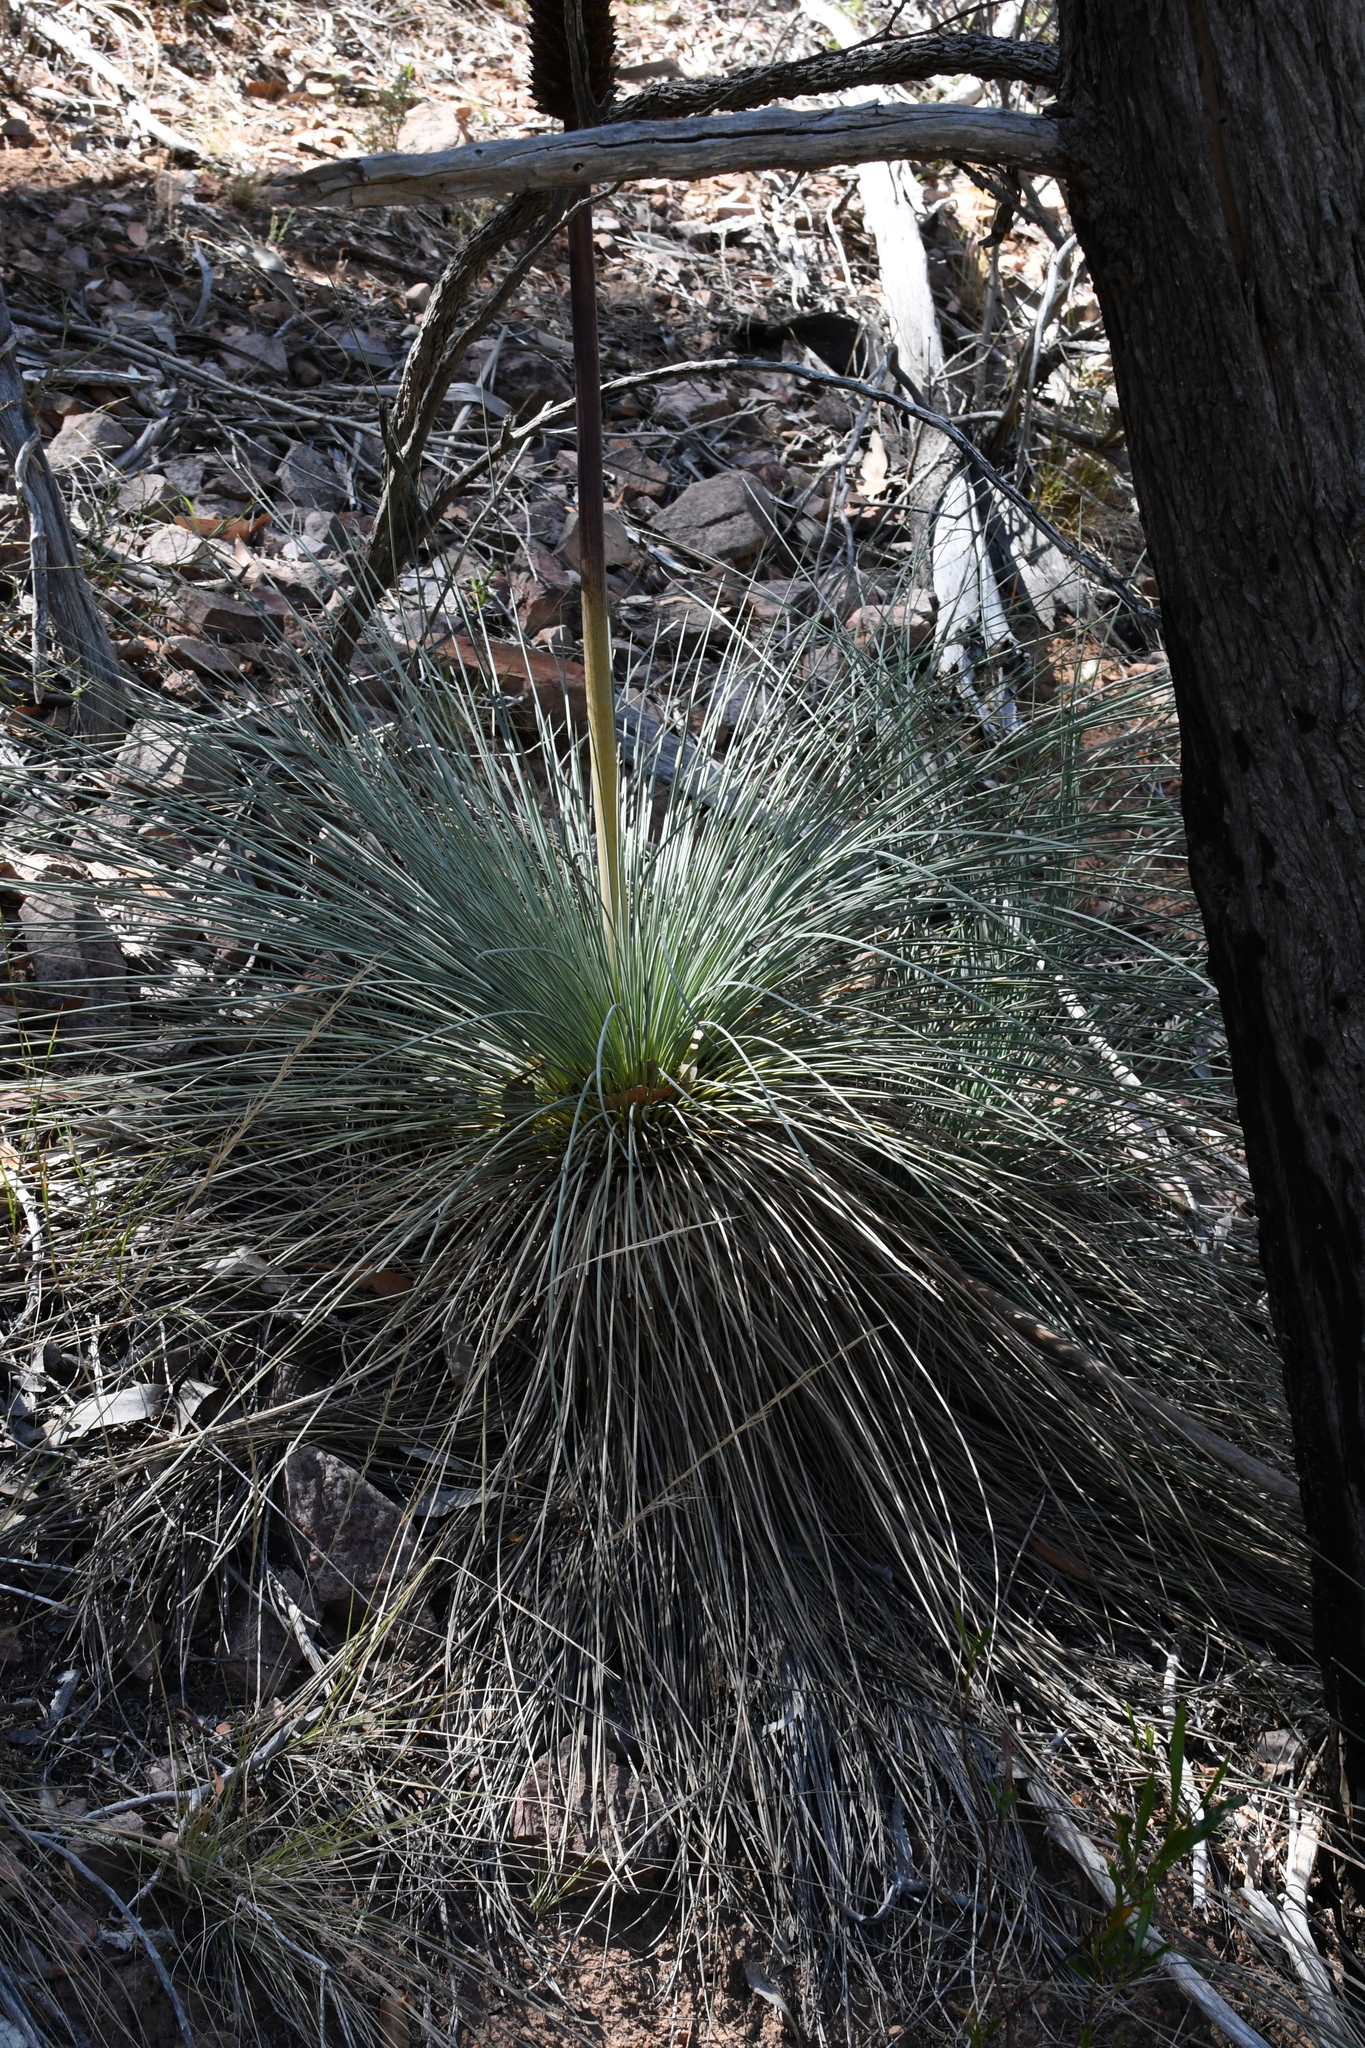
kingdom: Plantae
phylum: Tracheophyta
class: Liliopsida
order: Asparagales
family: Asphodelaceae
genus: Xanthorrhoea
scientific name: Xanthorrhoea quadrangulata
